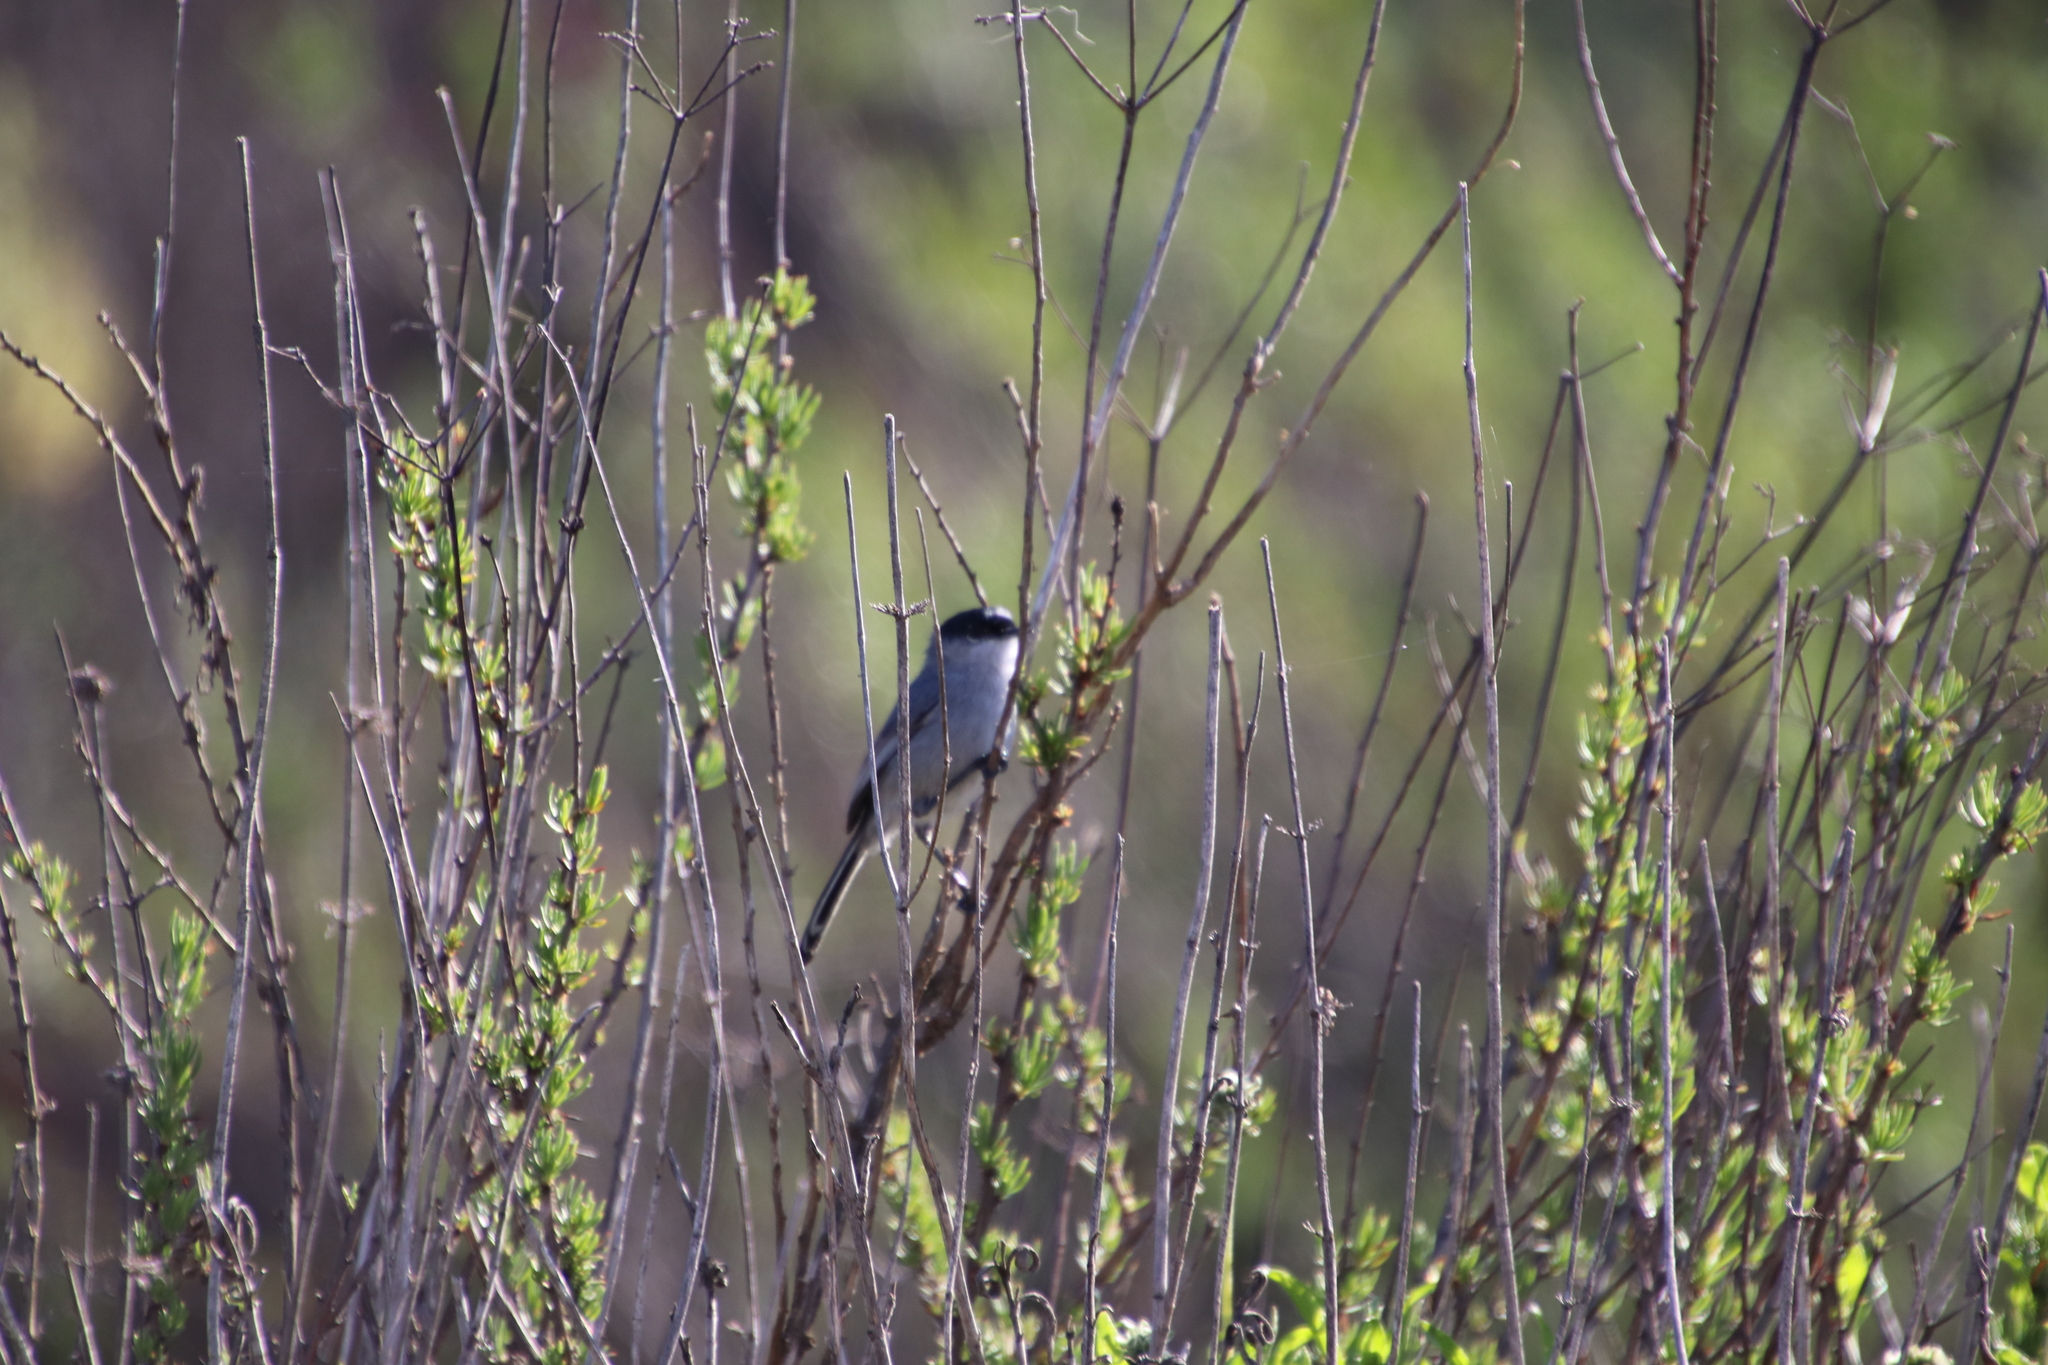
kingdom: Animalia
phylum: Chordata
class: Aves
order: Passeriformes
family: Polioptilidae
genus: Polioptila
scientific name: Polioptila californica
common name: California gnatcatcher
